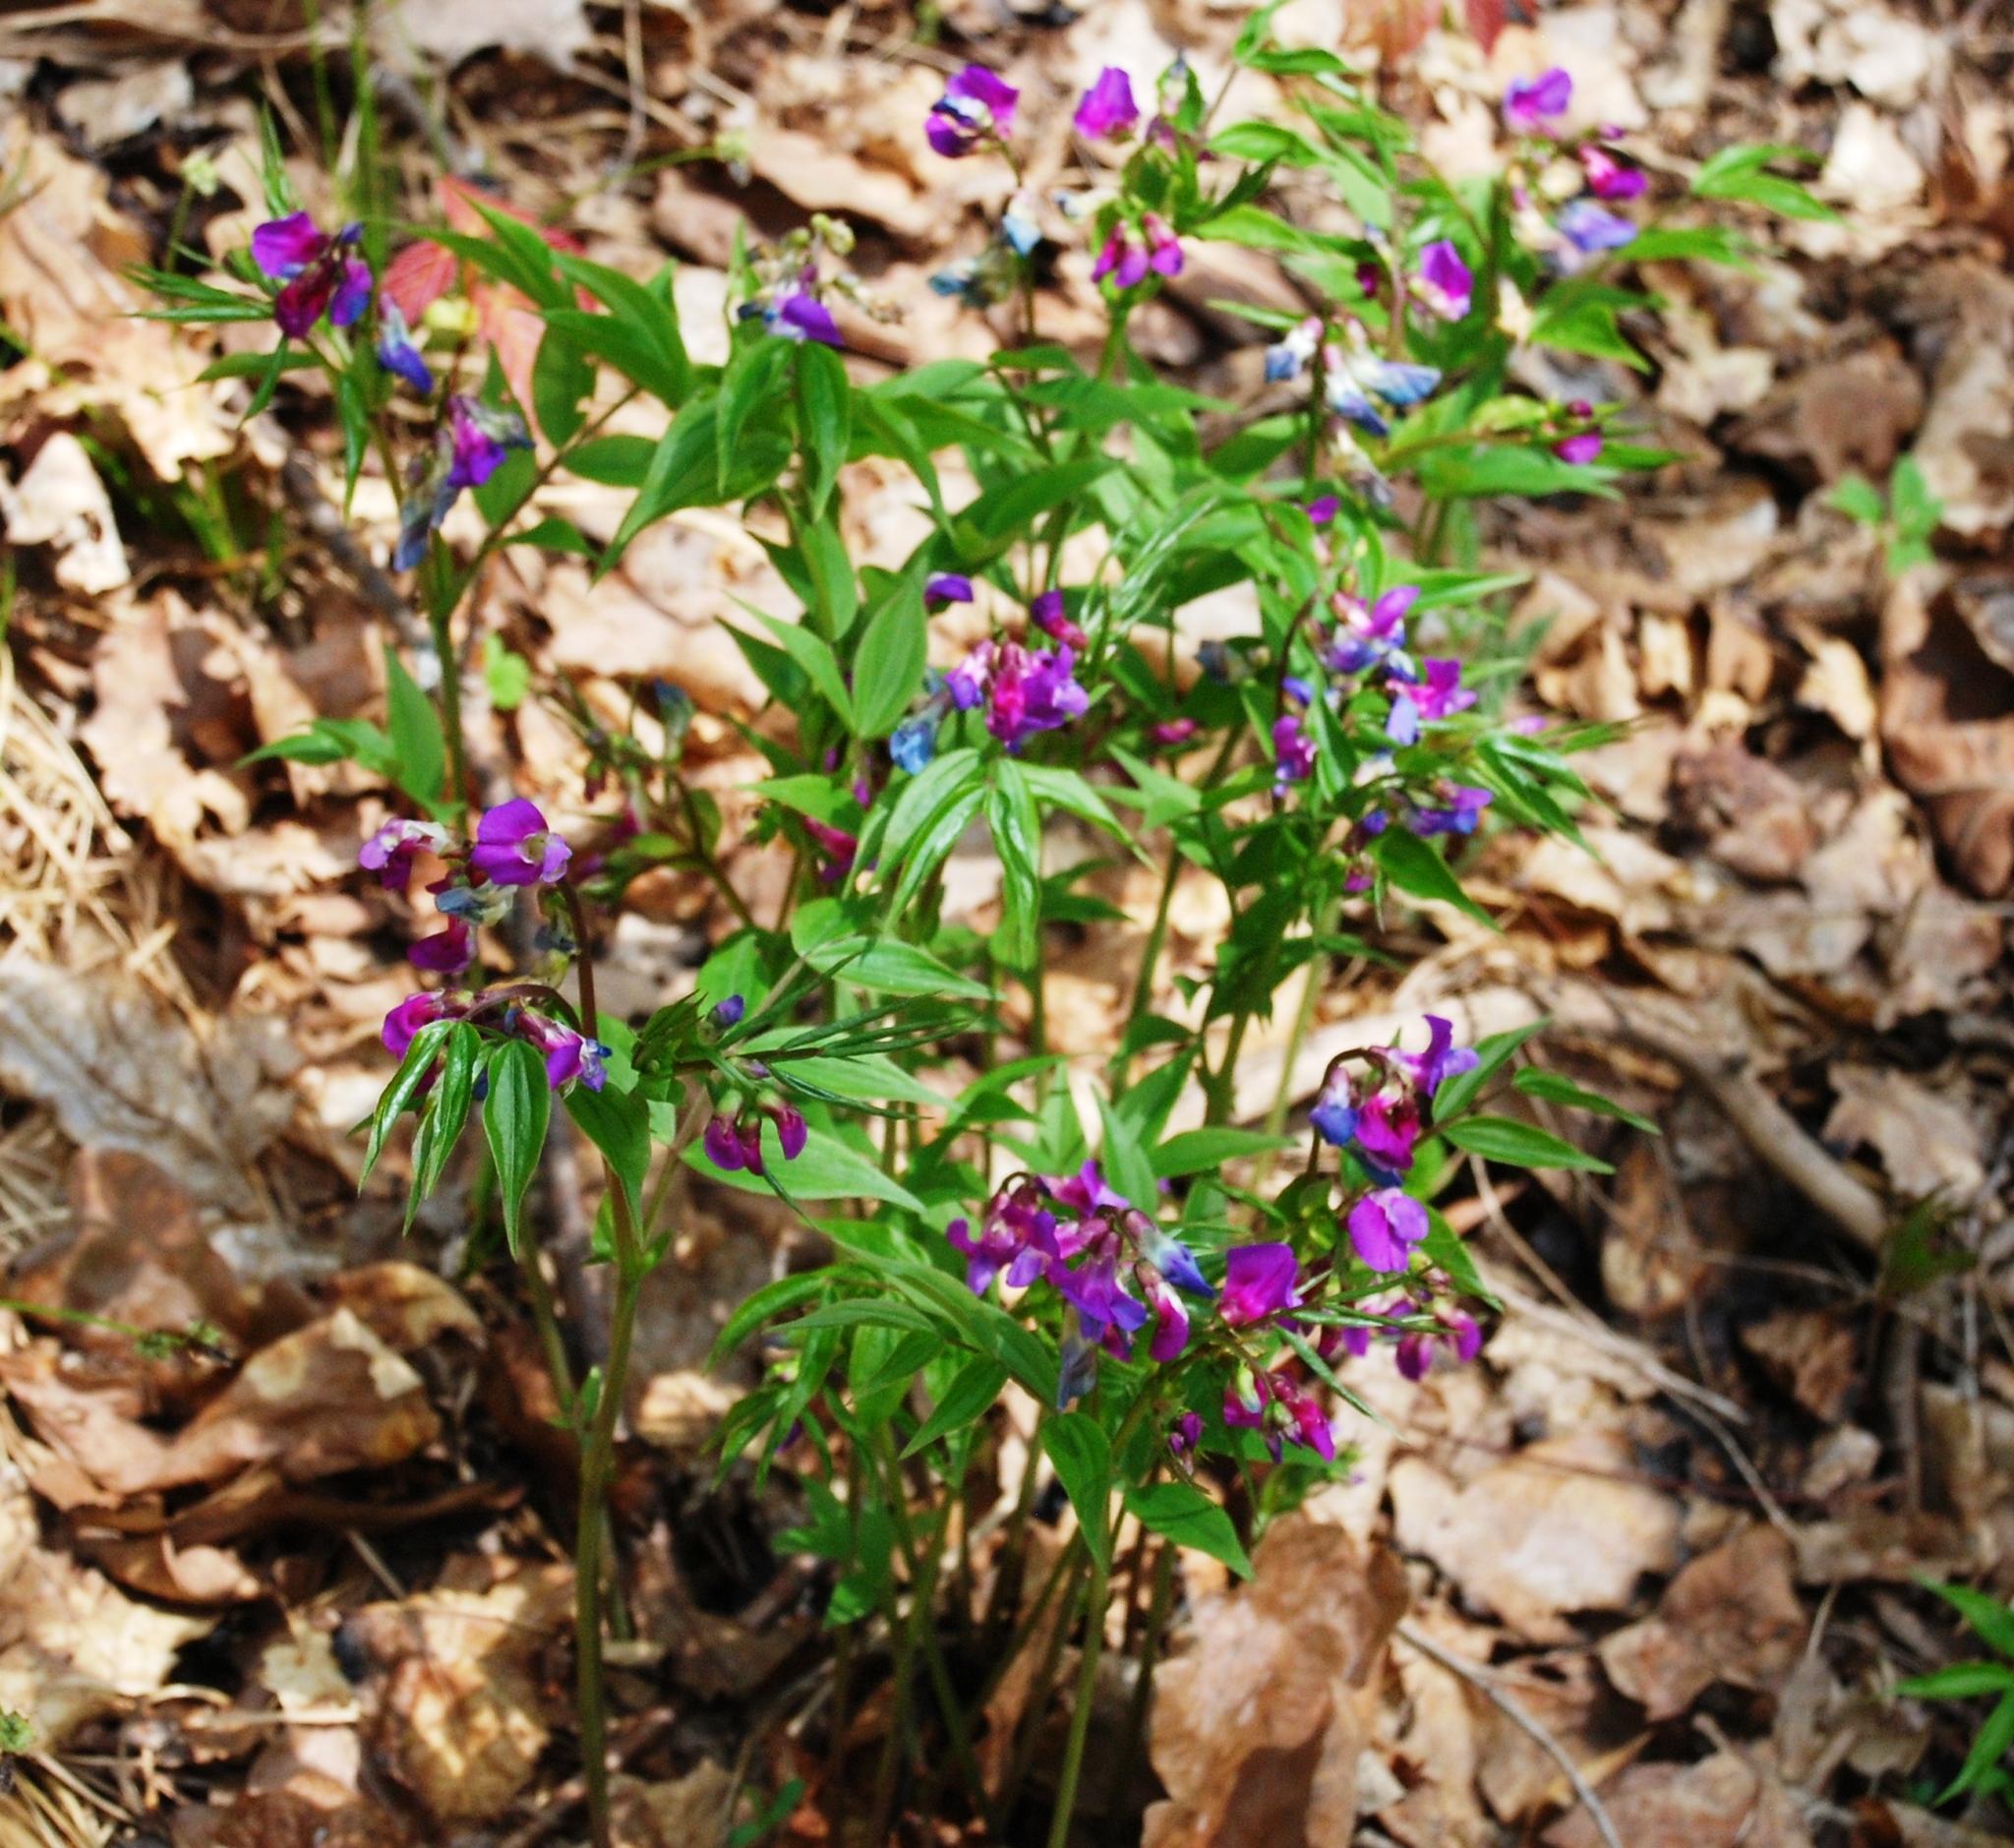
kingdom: Plantae
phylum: Tracheophyta
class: Magnoliopsida
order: Fabales
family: Fabaceae
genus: Lathyrus
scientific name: Lathyrus vernus
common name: Spring pea
